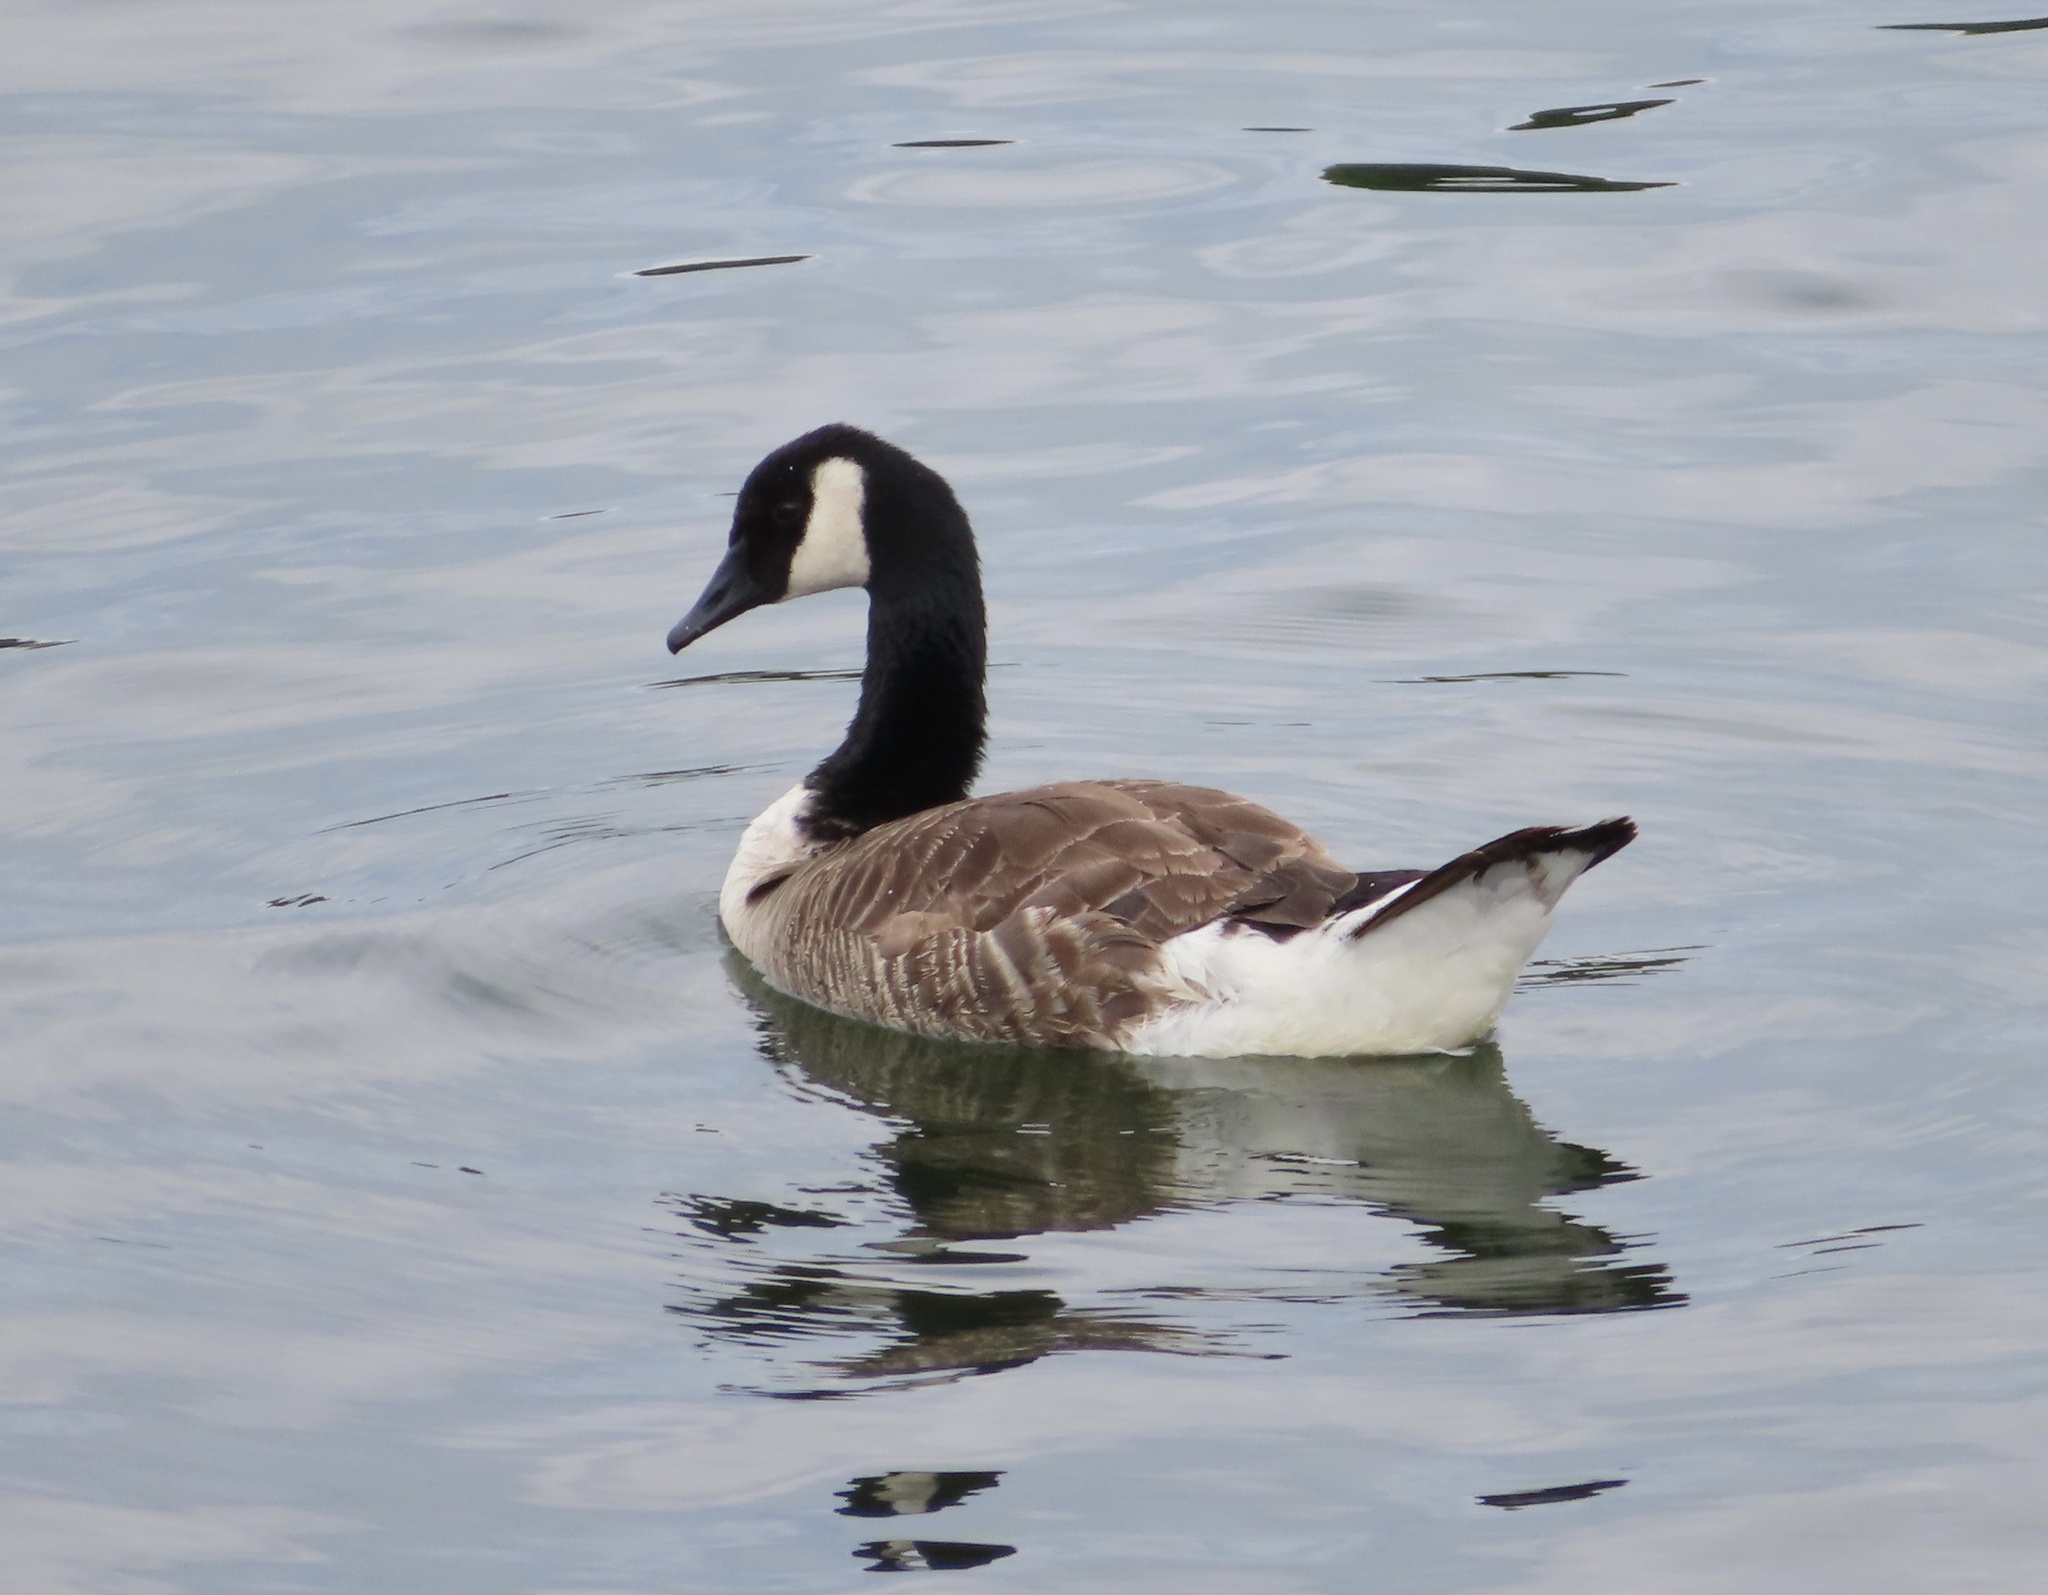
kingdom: Animalia
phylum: Chordata
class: Aves
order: Anseriformes
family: Anatidae
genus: Branta
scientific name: Branta canadensis
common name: Canada goose
